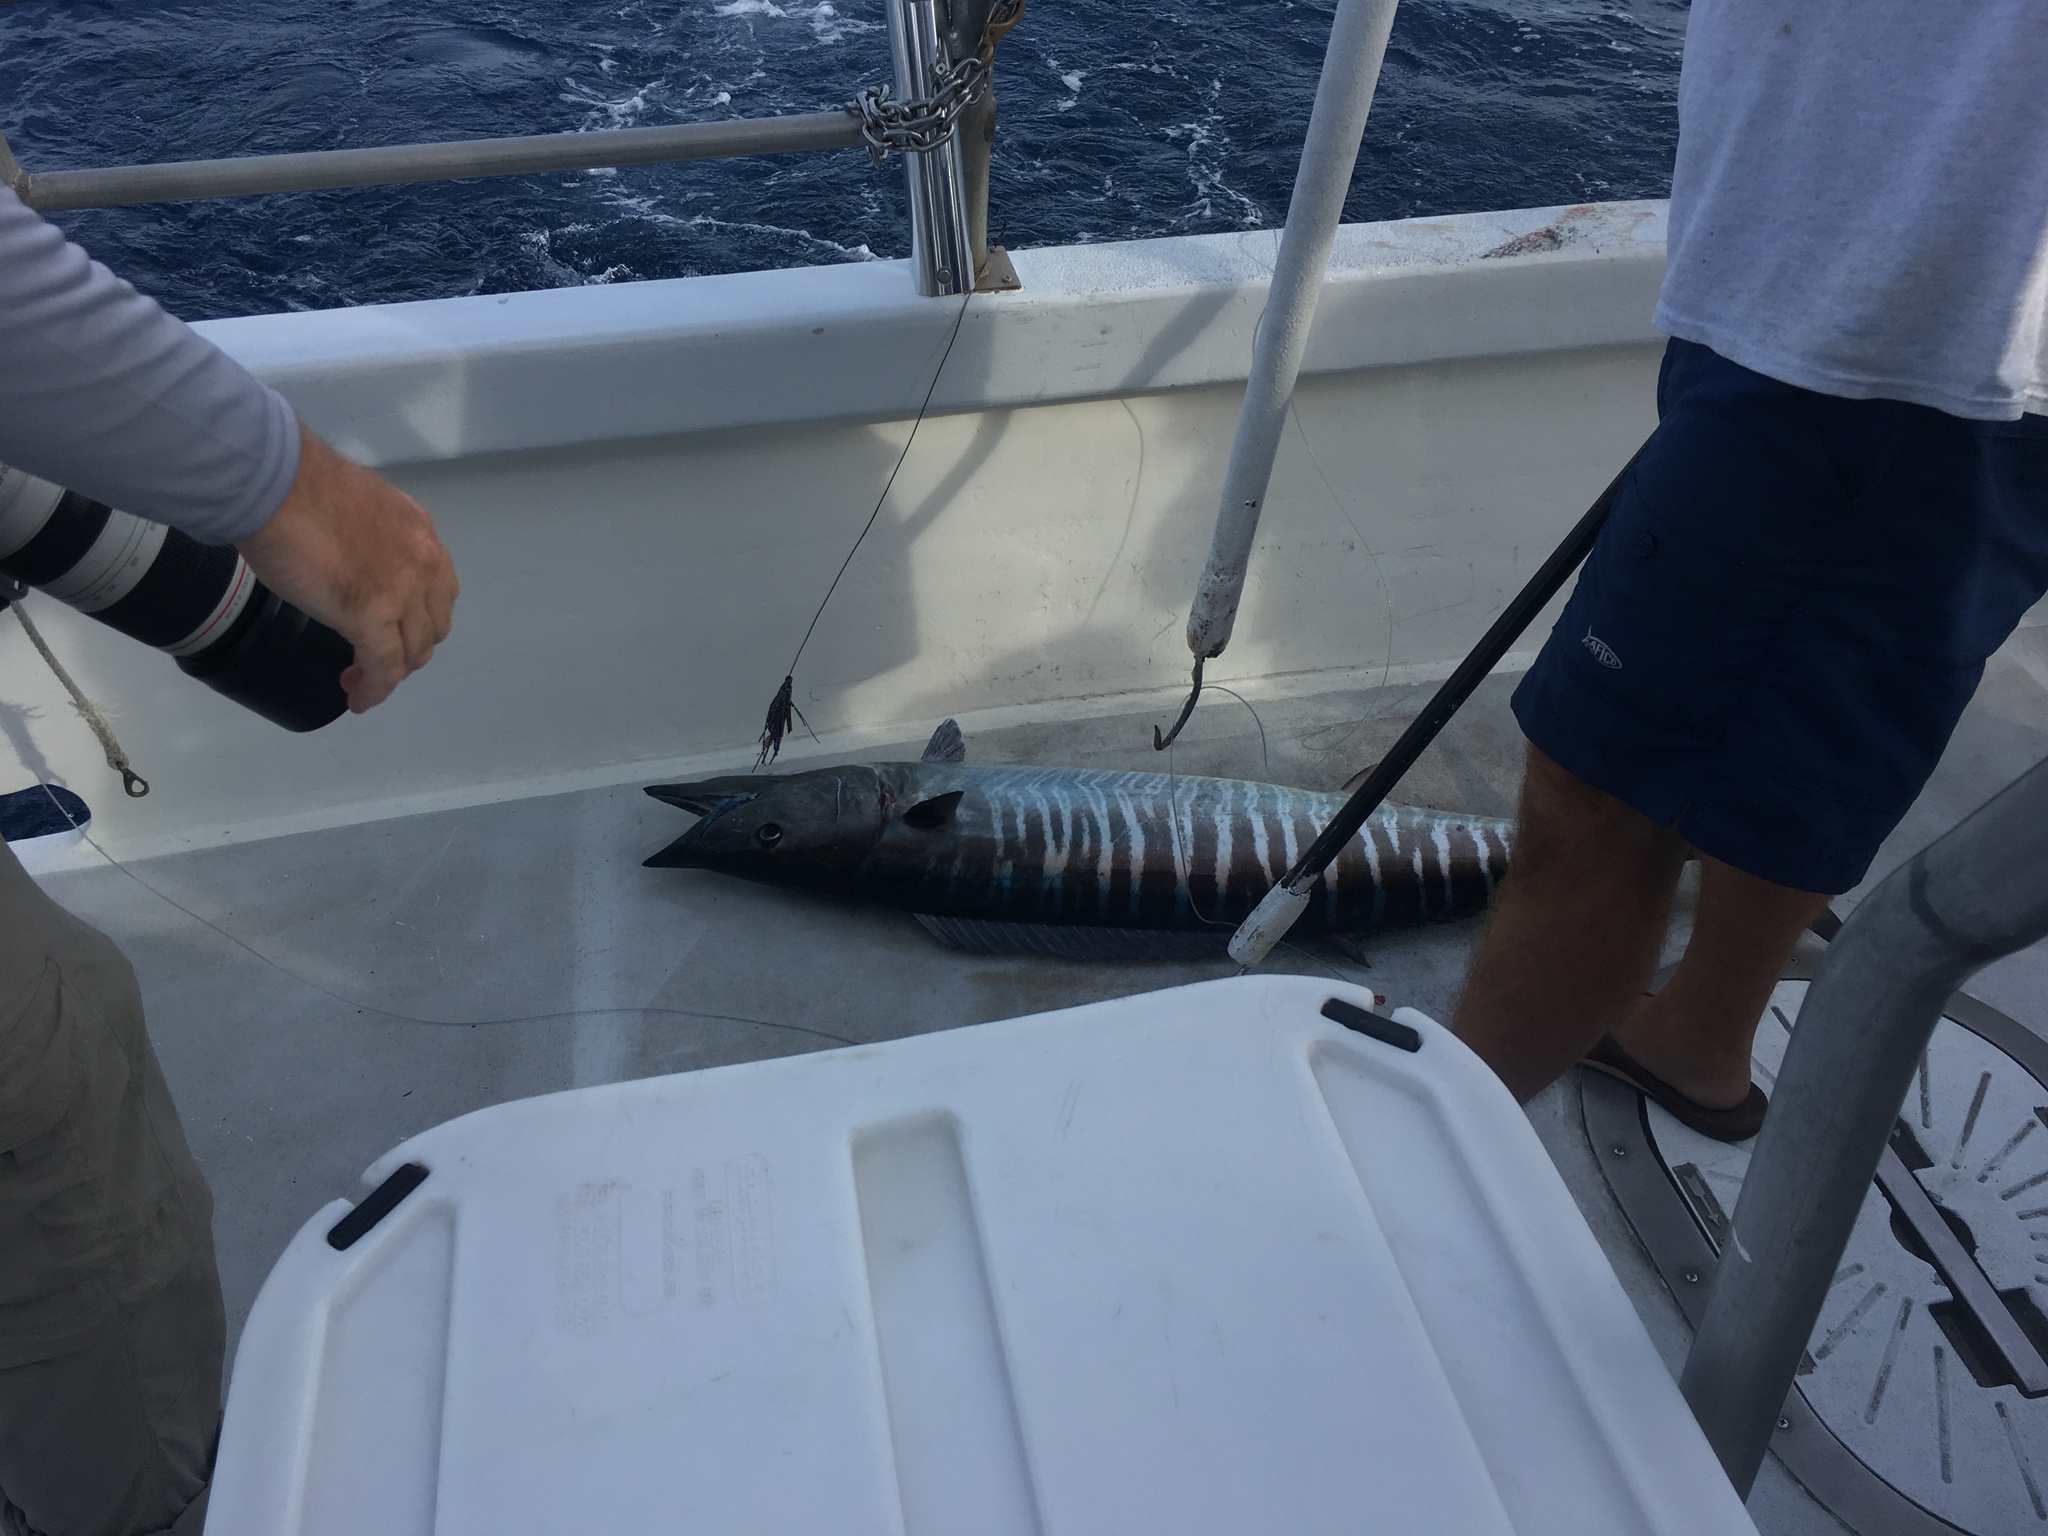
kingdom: Animalia
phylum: Chordata
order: Perciformes
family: Scombridae
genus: Acanthocybium
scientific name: Acanthocybium solandri
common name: Wahoo
